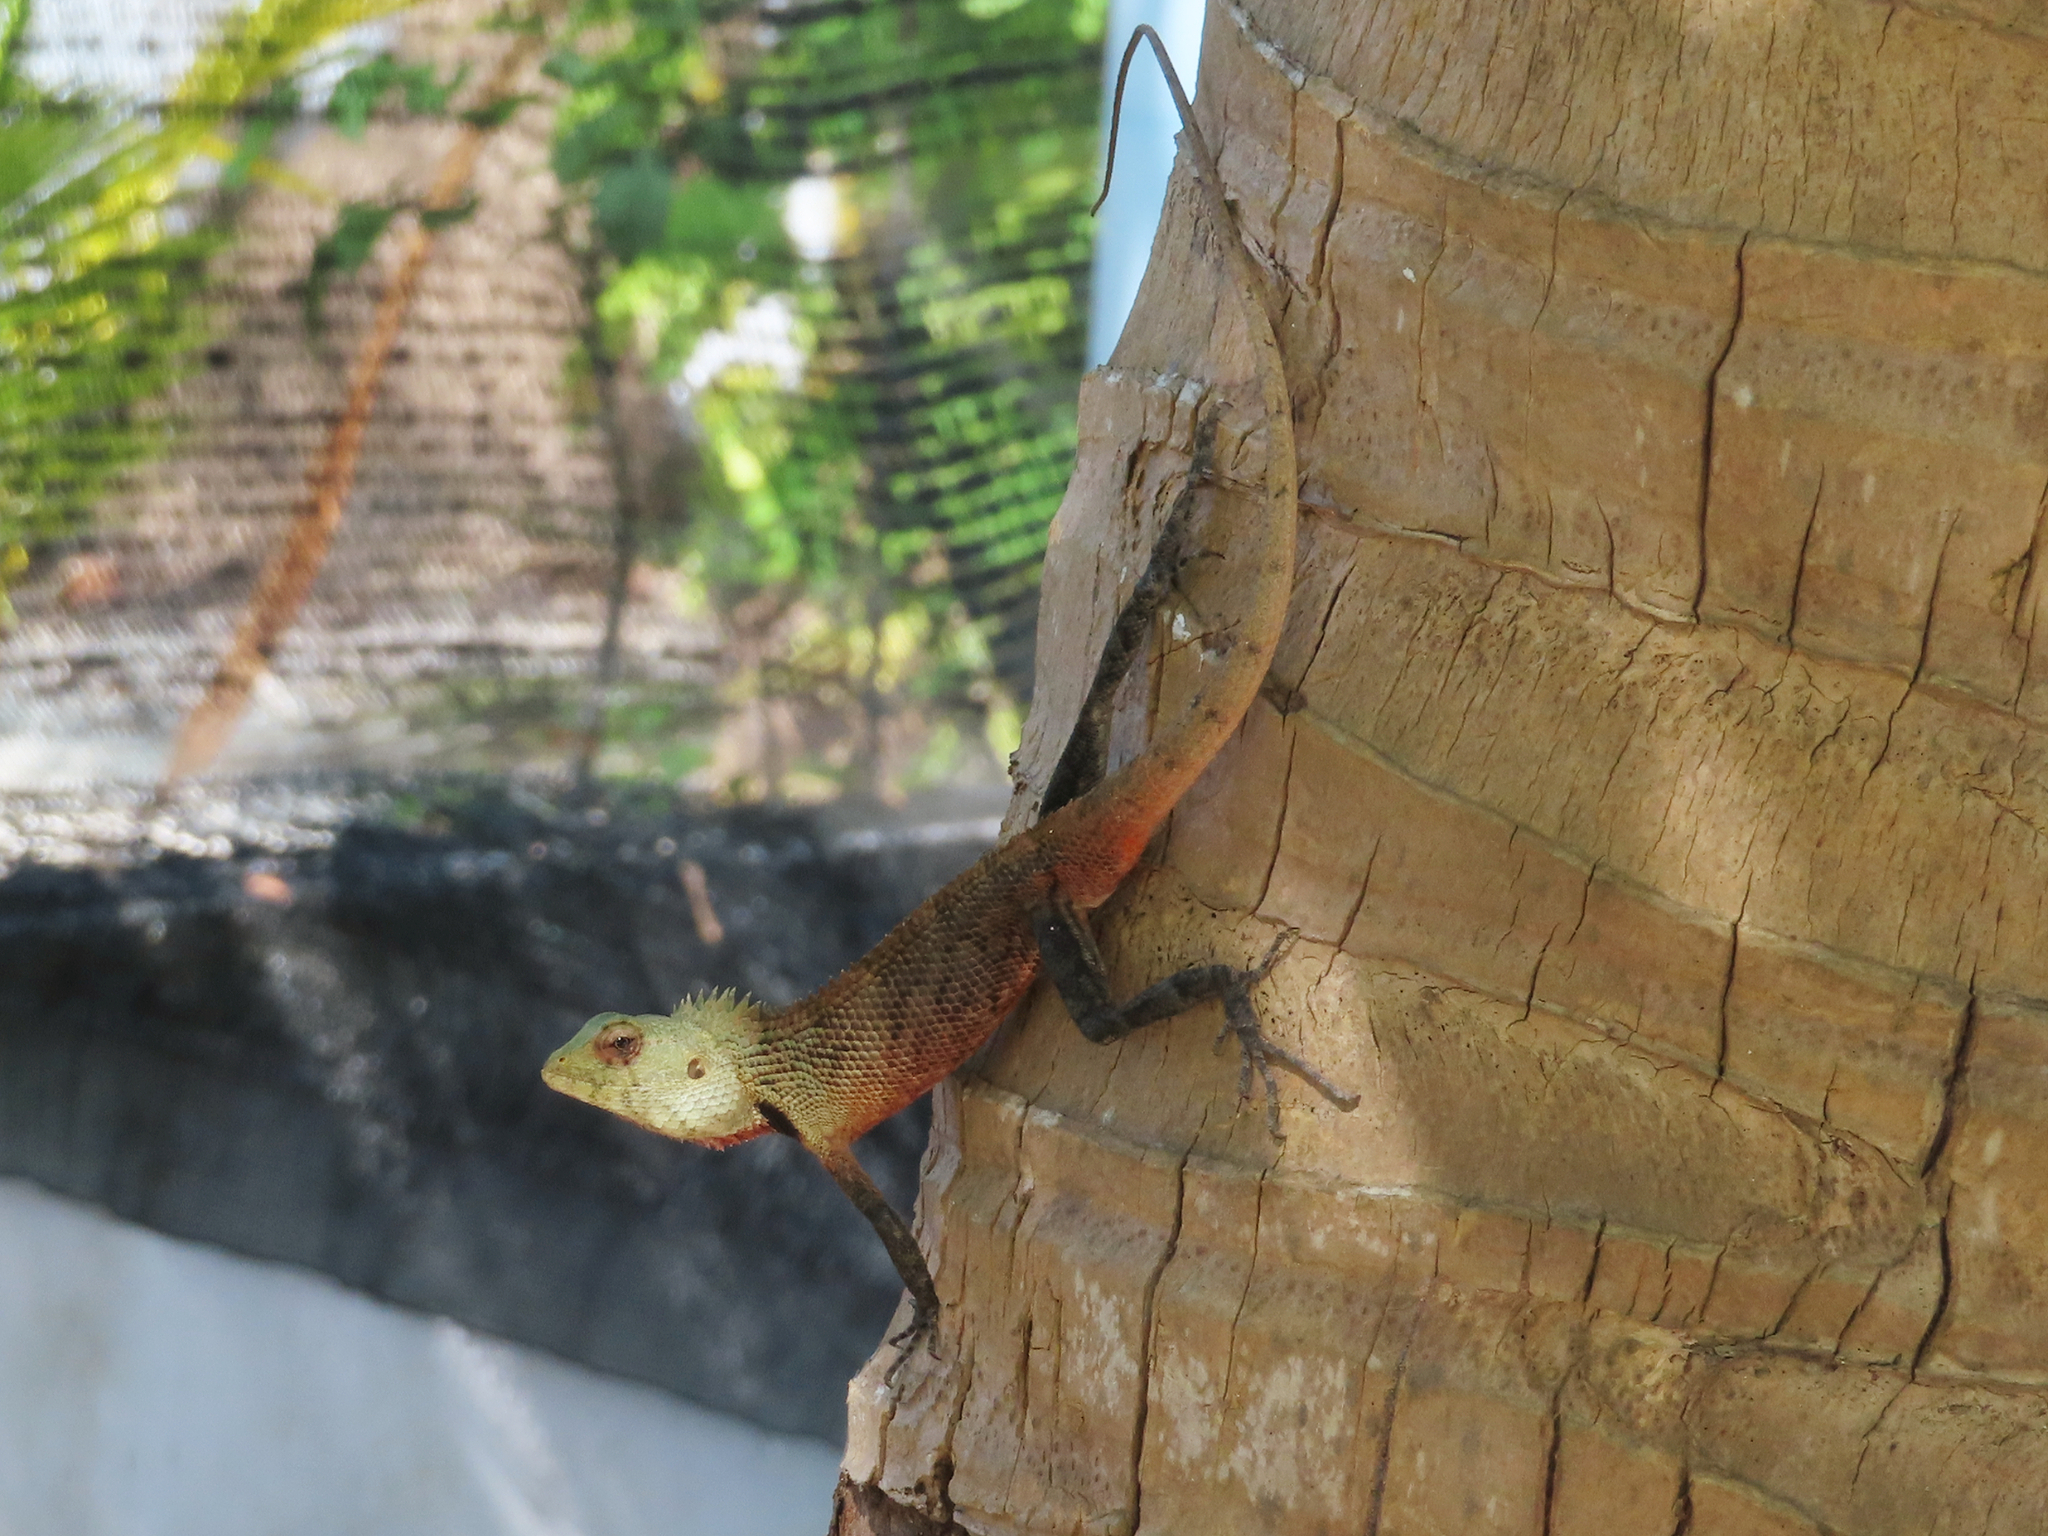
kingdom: Animalia
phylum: Chordata
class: Squamata
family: Agamidae
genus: Calotes
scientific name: Calotes versicolor
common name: Oriental garden lizard
